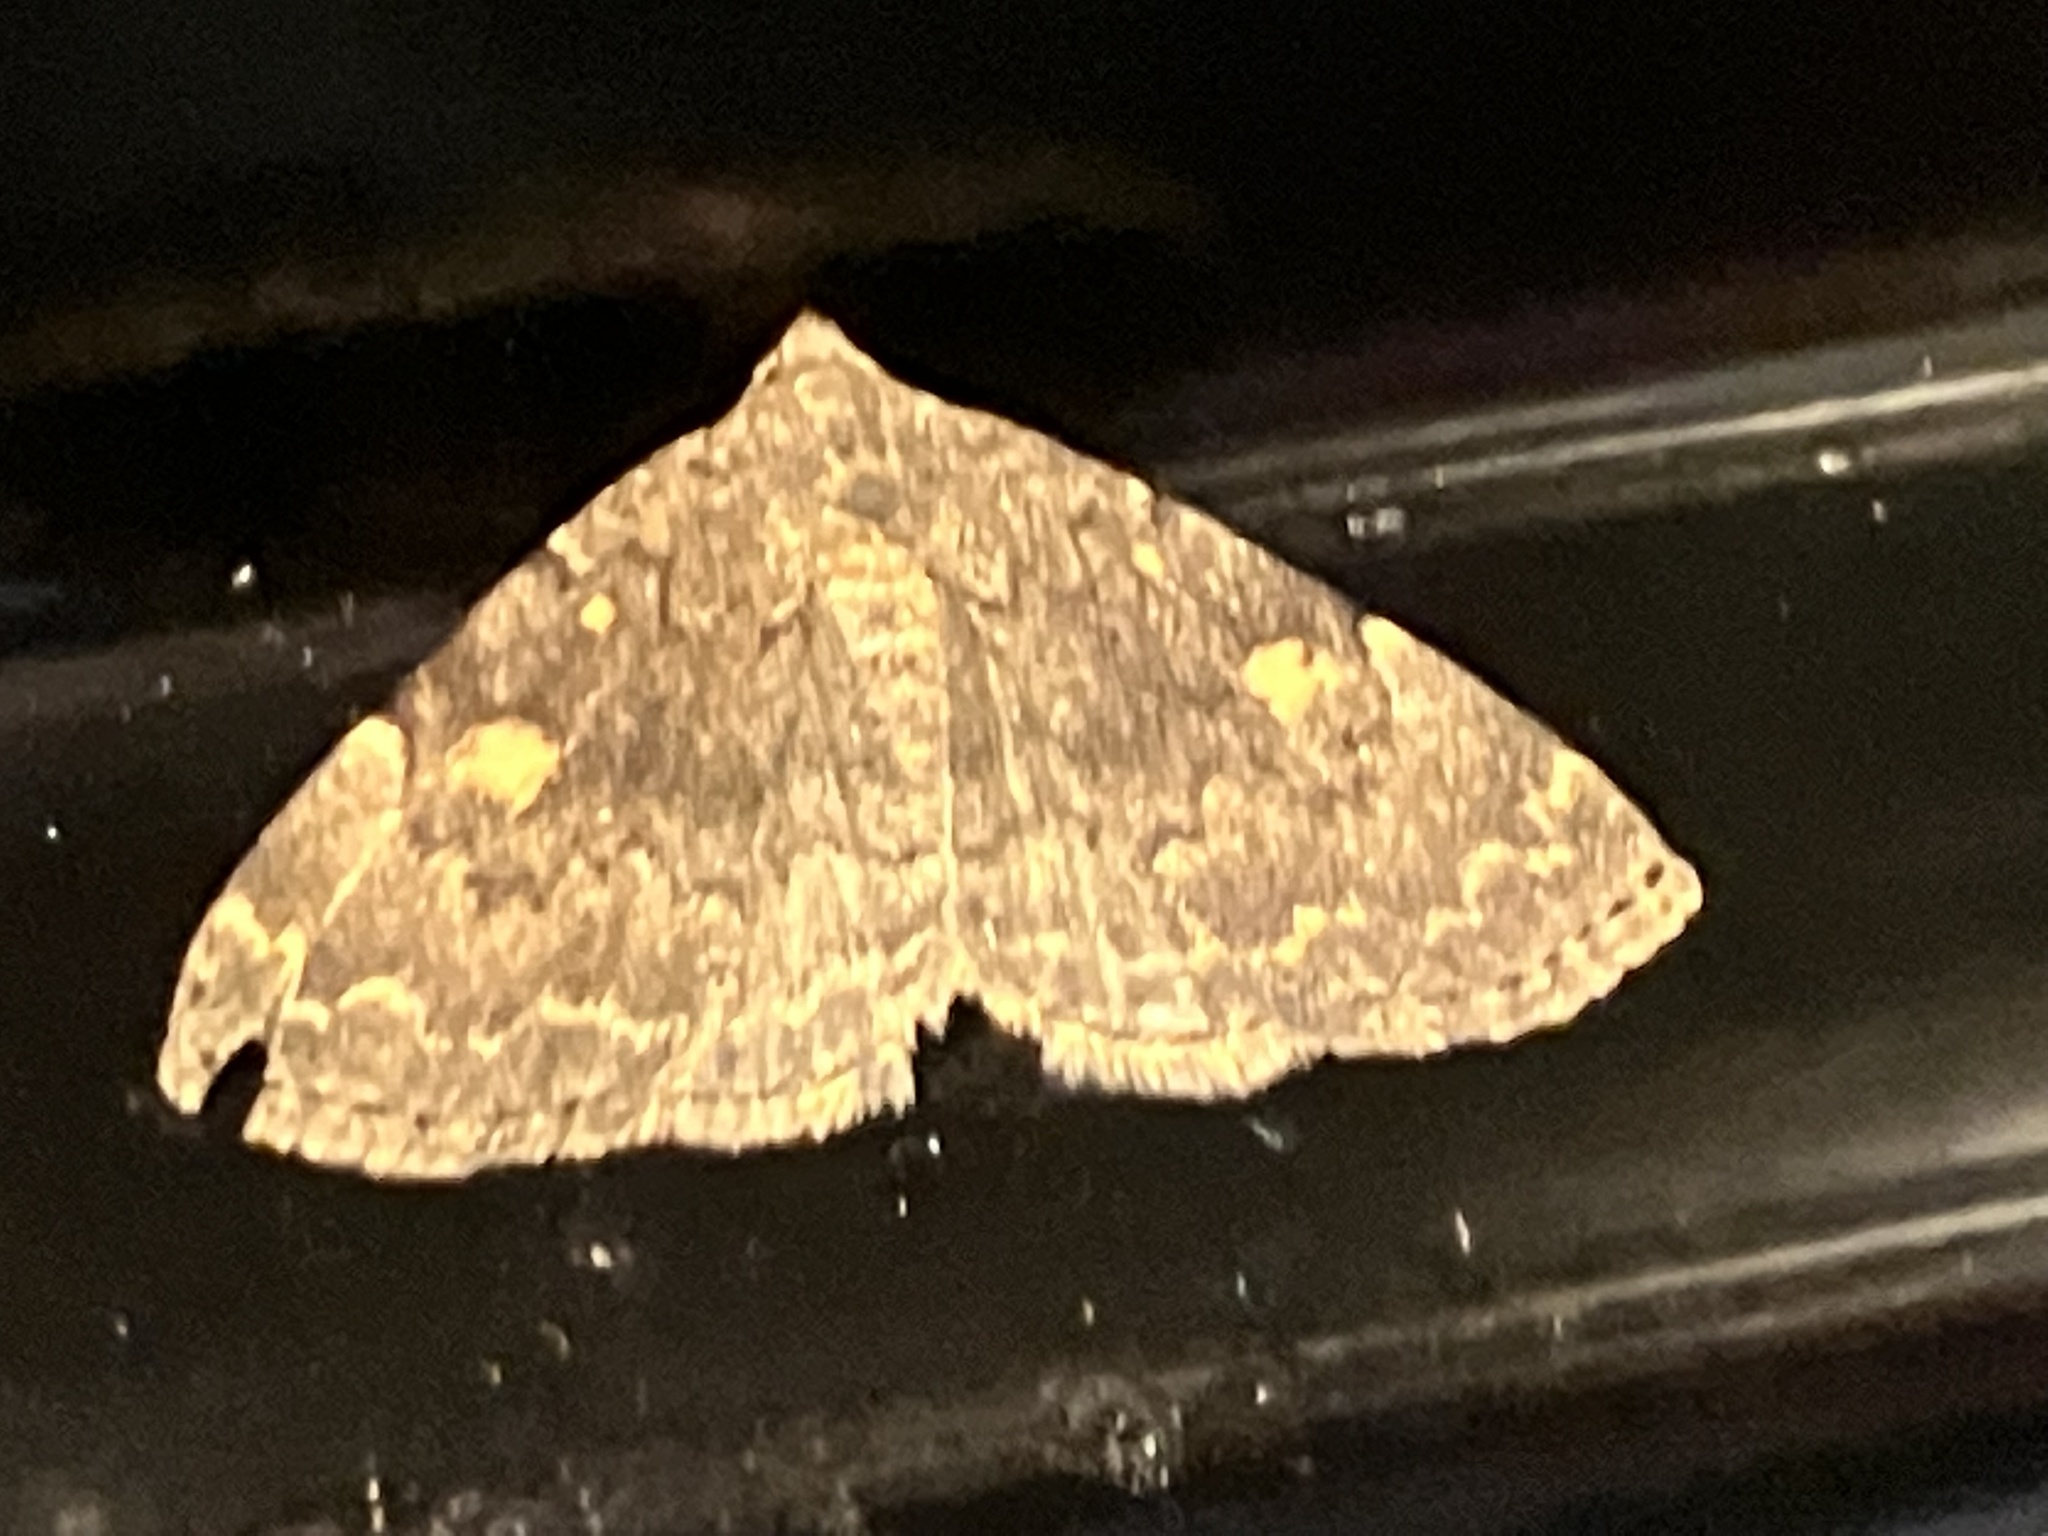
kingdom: Animalia
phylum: Arthropoda
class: Insecta
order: Lepidoptera
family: Erebidae
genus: Idia
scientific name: Idia aemula
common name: Common idia moth
